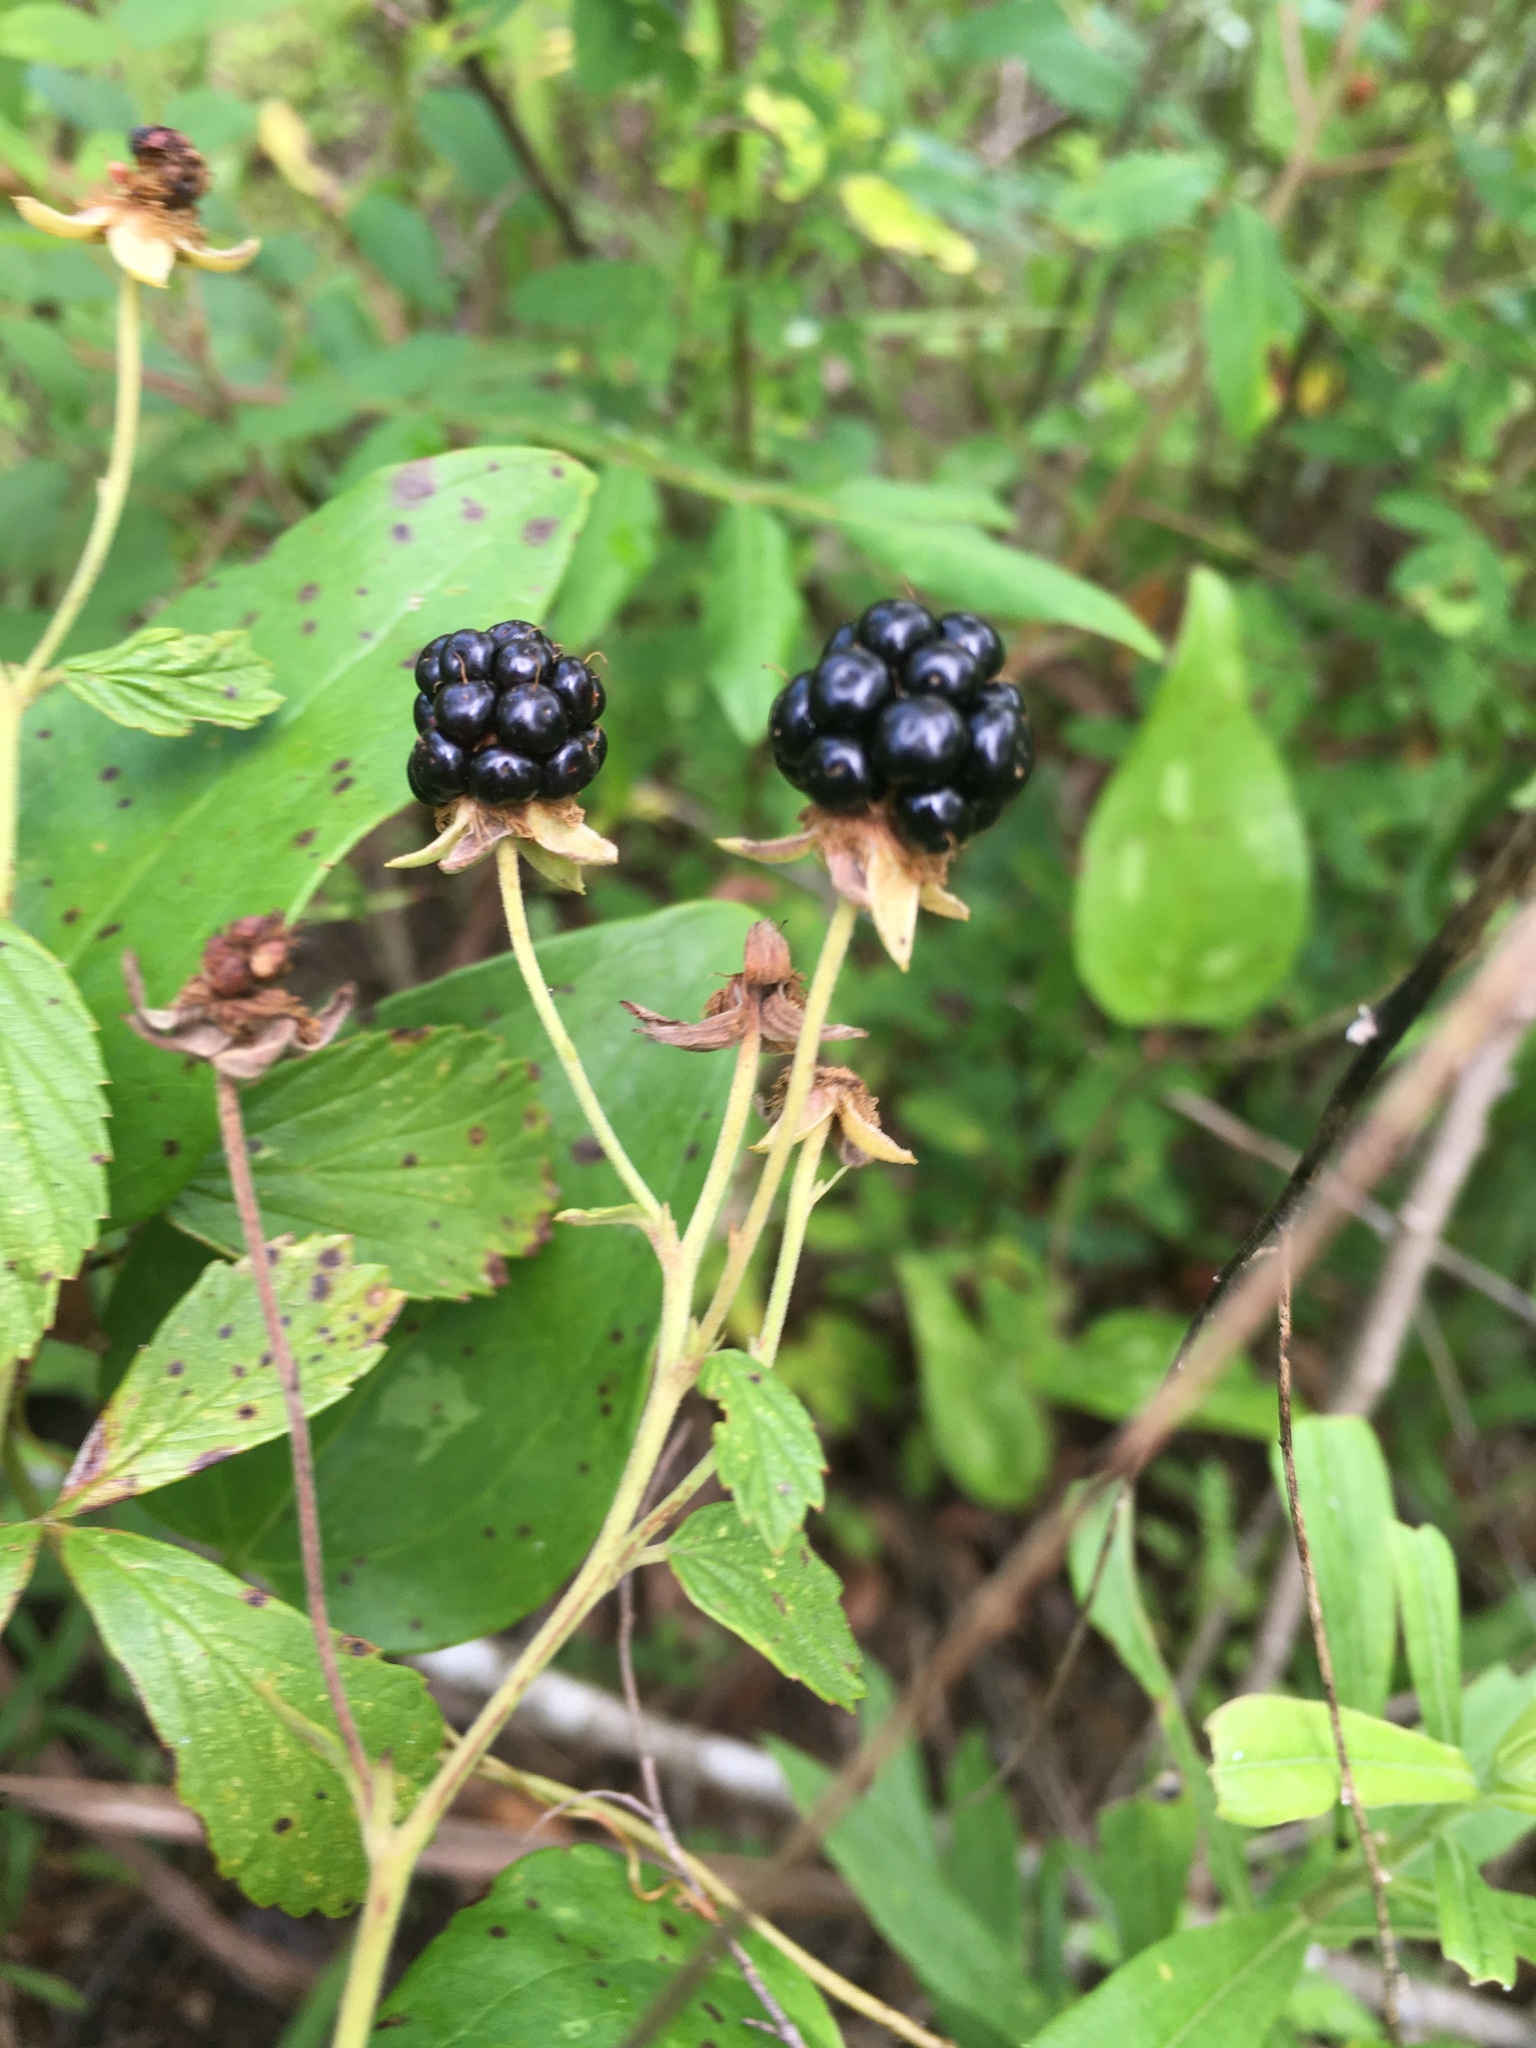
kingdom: Plantae
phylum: Tracheophyta
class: Magnoliopsida
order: Rosales
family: Rosaceae
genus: Rubus
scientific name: Rubus cuneifolius
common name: American bramble
